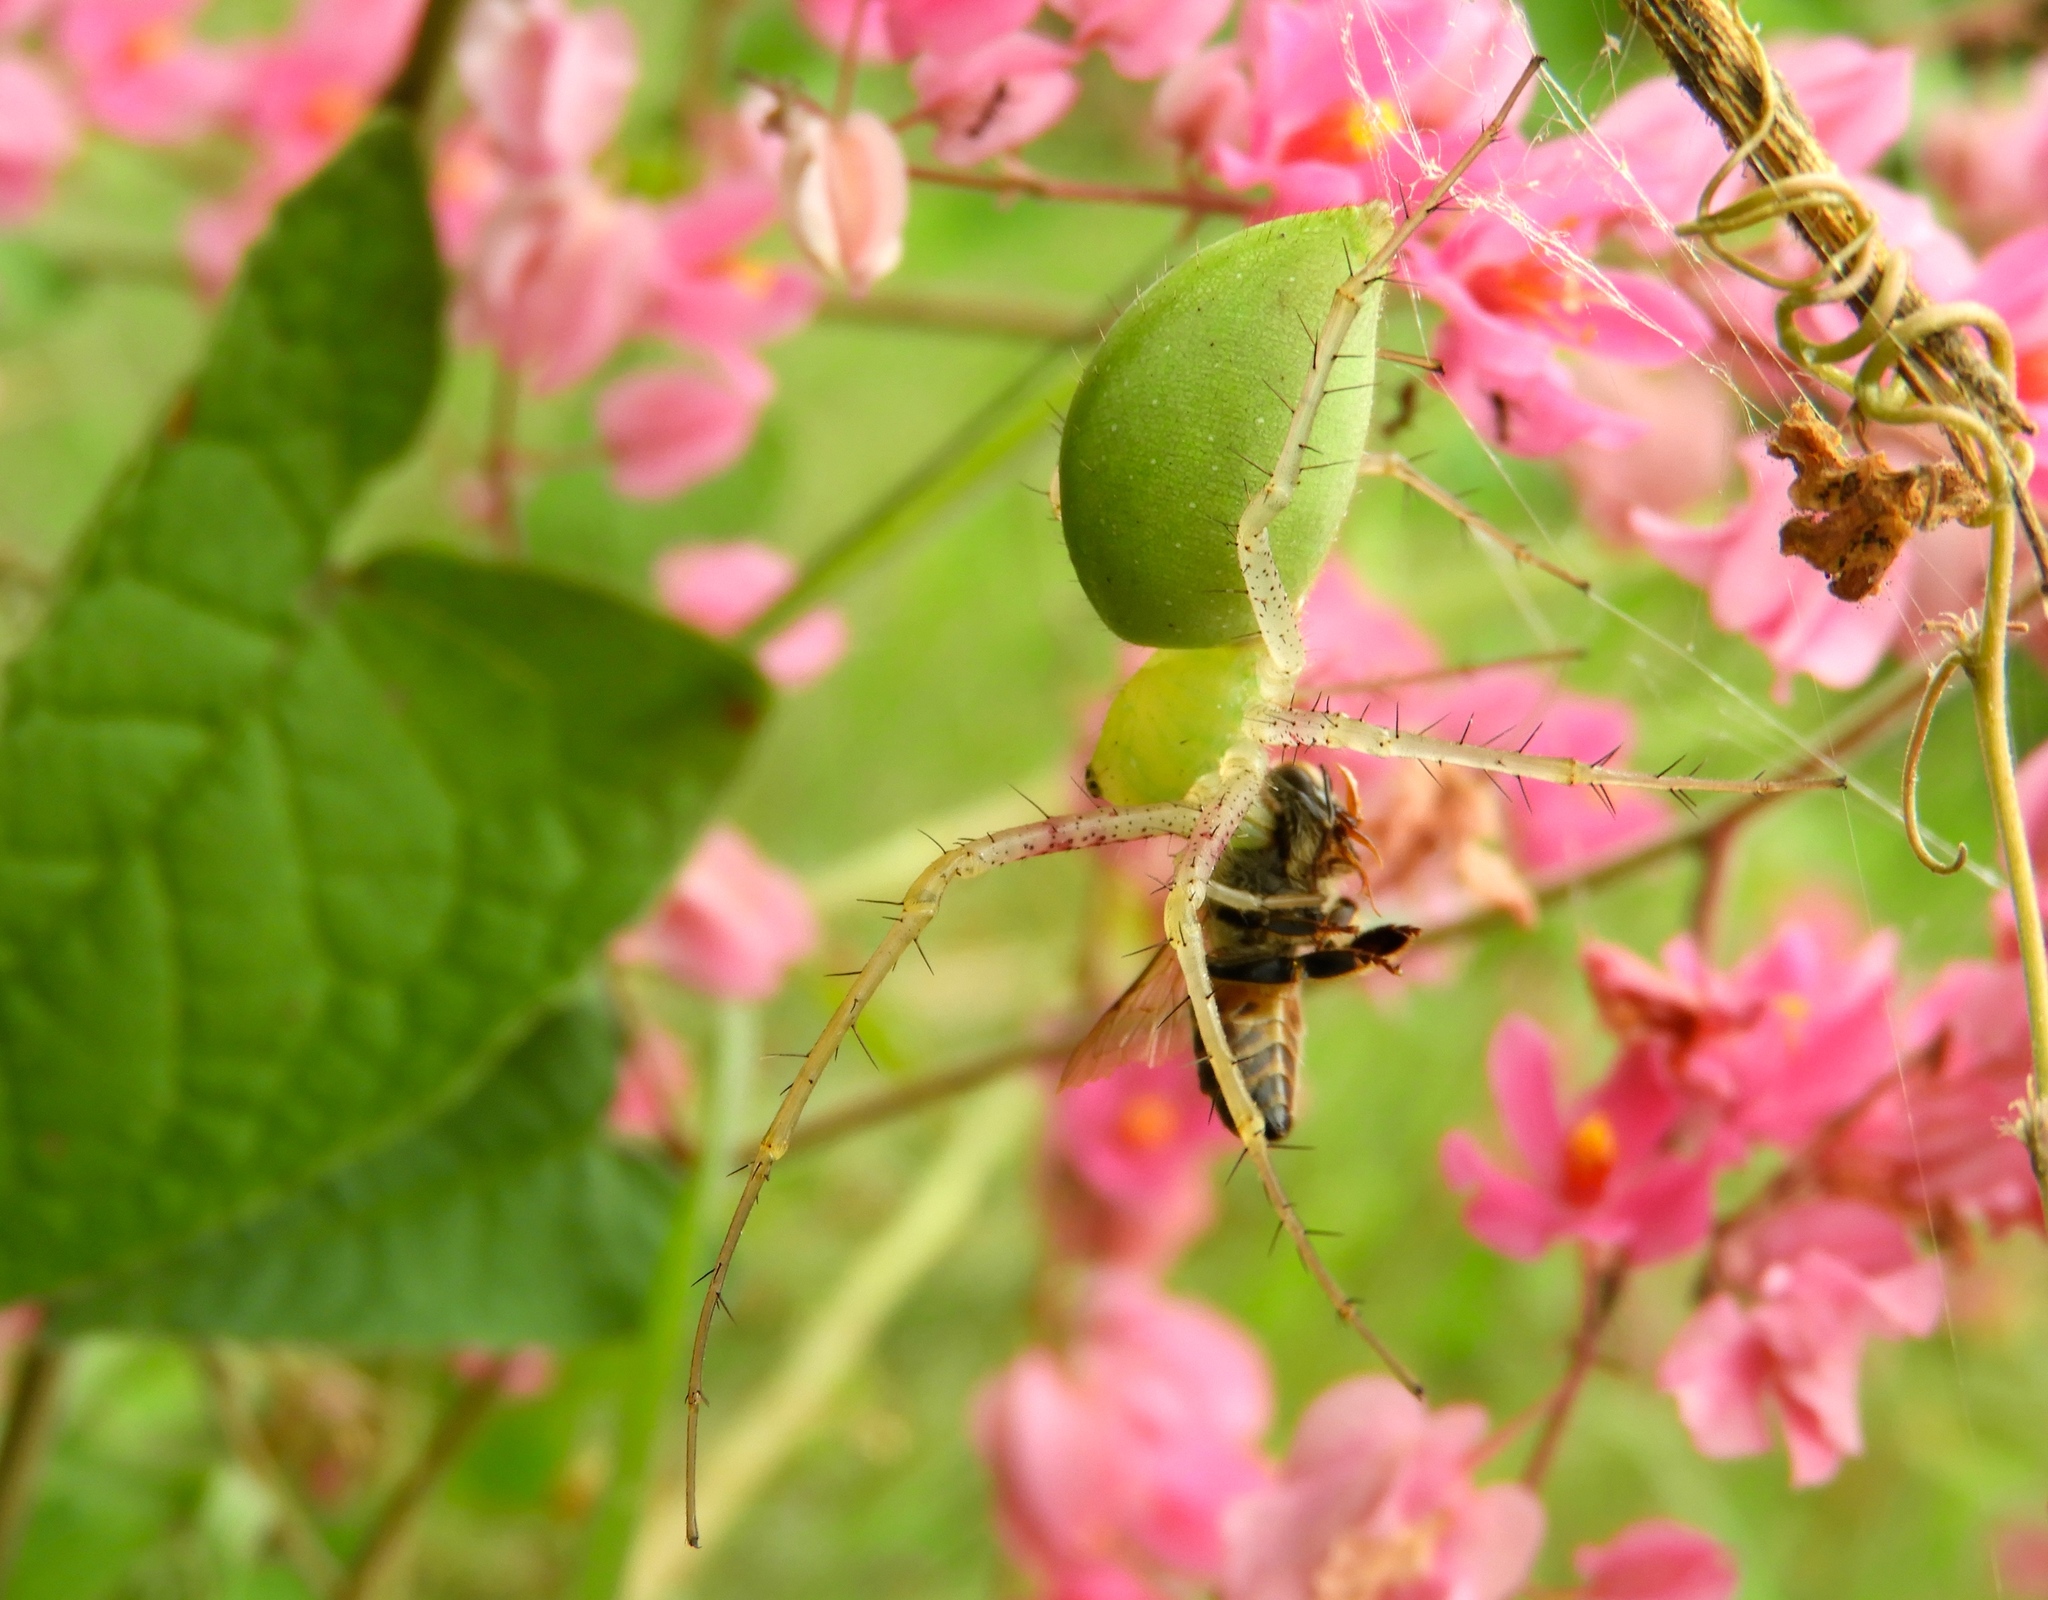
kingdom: Animalia
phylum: Arthropoda
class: Arachnida
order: Araneae
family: Oxyopidae
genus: Peucetia
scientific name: Peucetia
